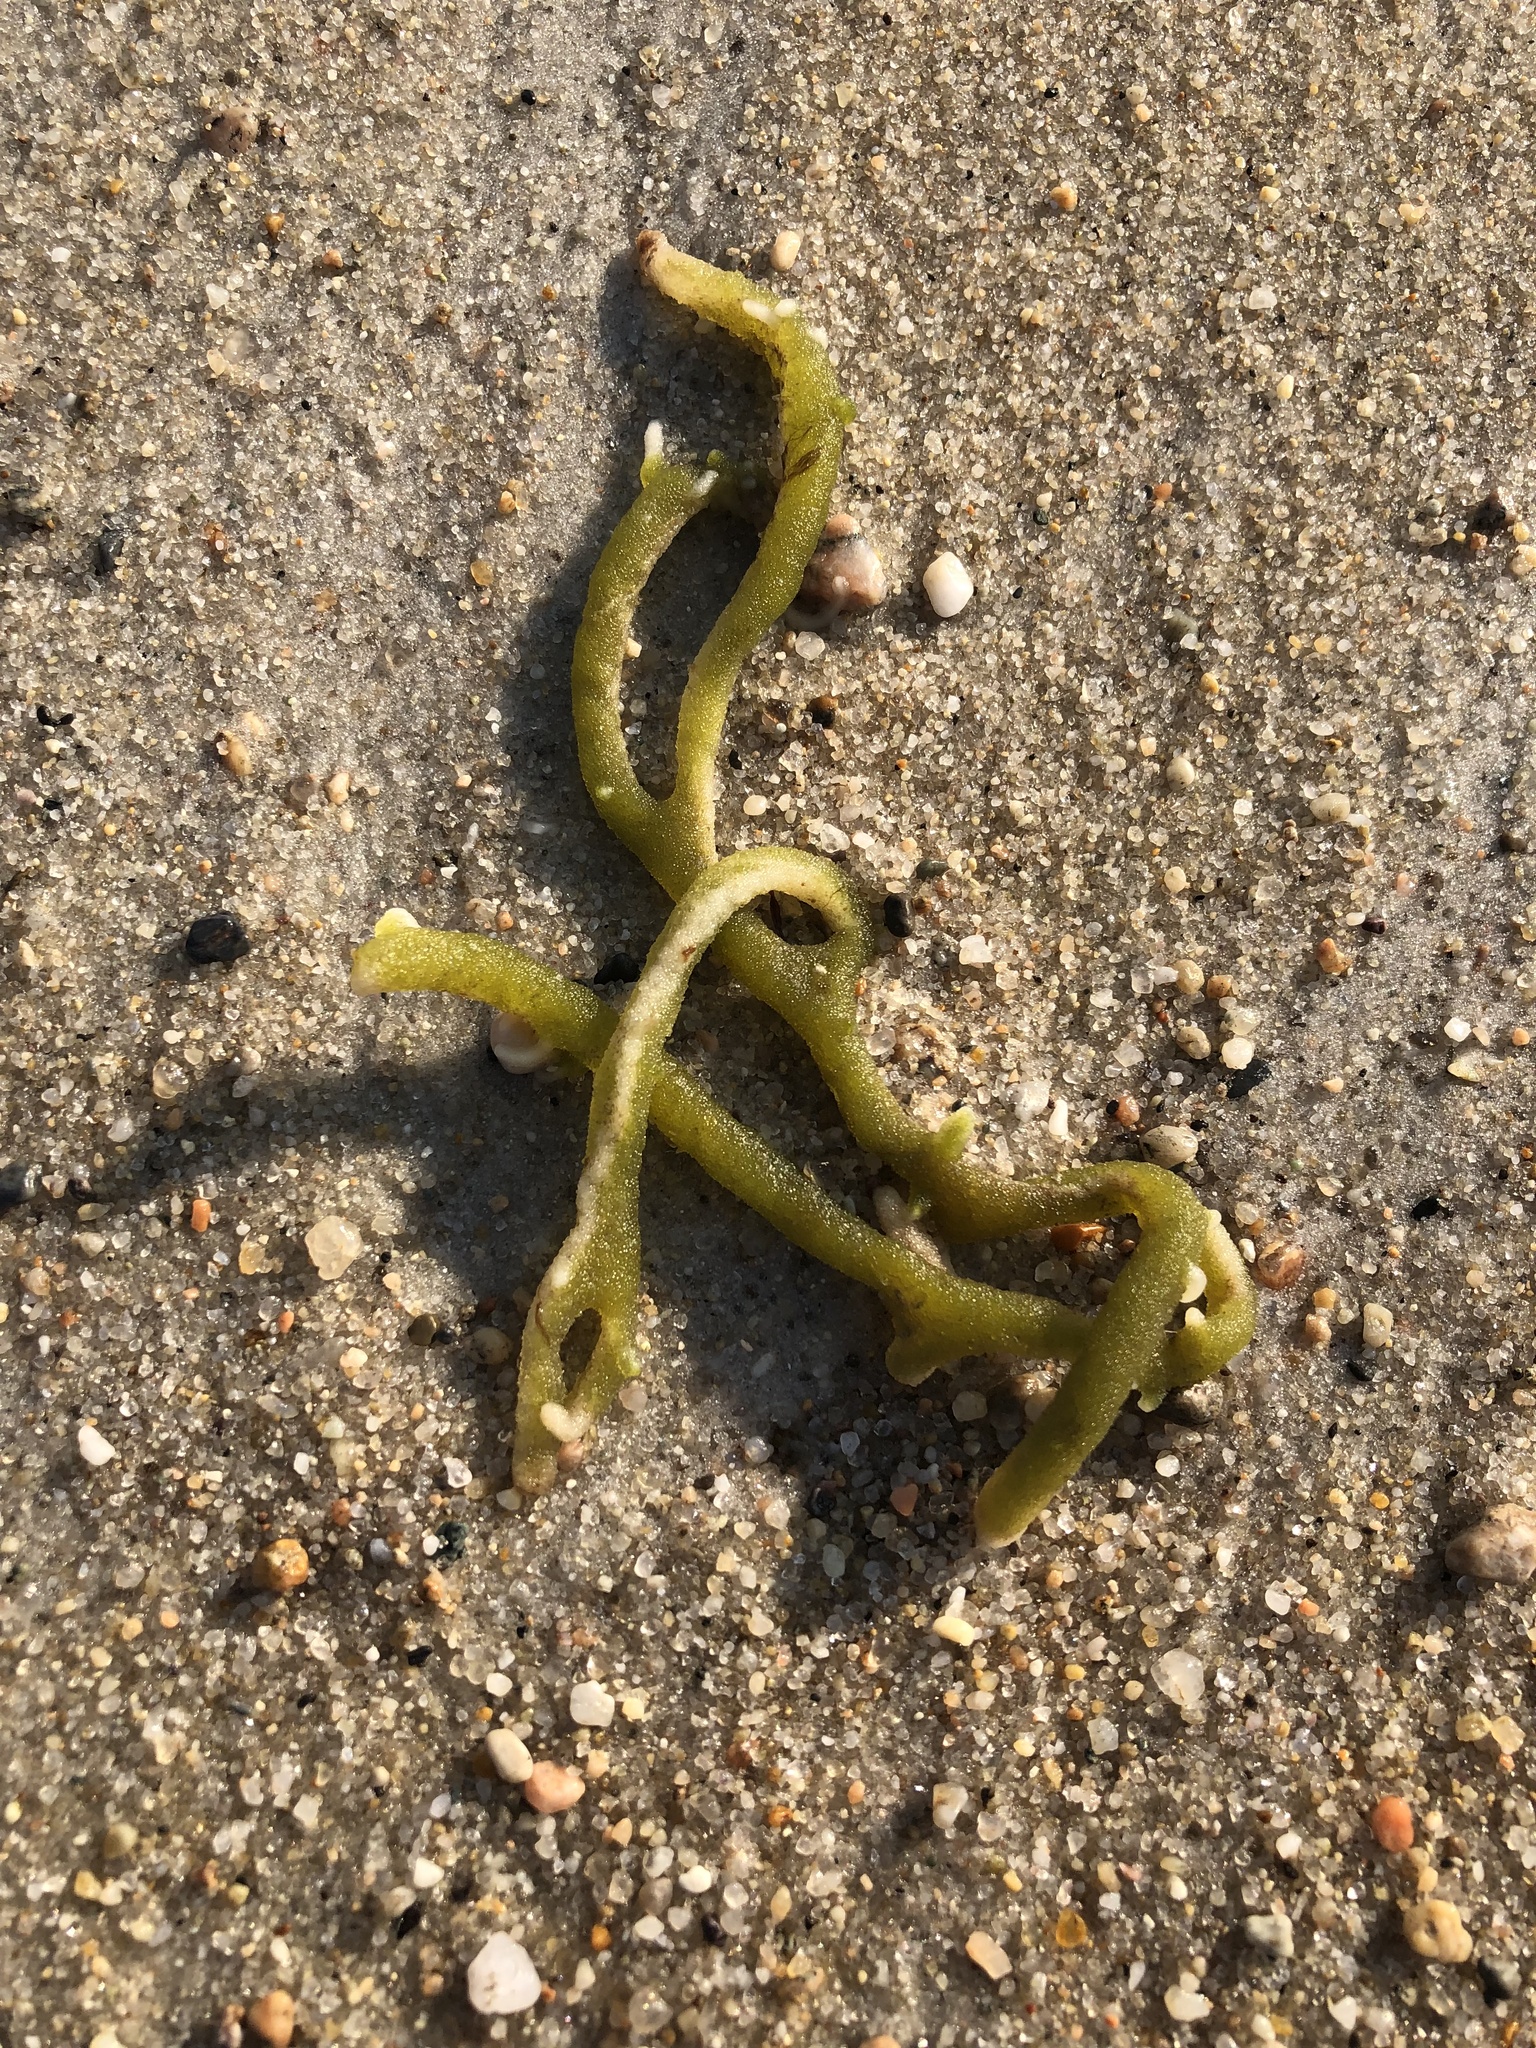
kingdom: Plantae
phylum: Chlorophyta
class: Ulvophyceae
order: Bryopsidales
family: Codiaceae
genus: Codium
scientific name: Codium fragile
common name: Dead man's fingers
